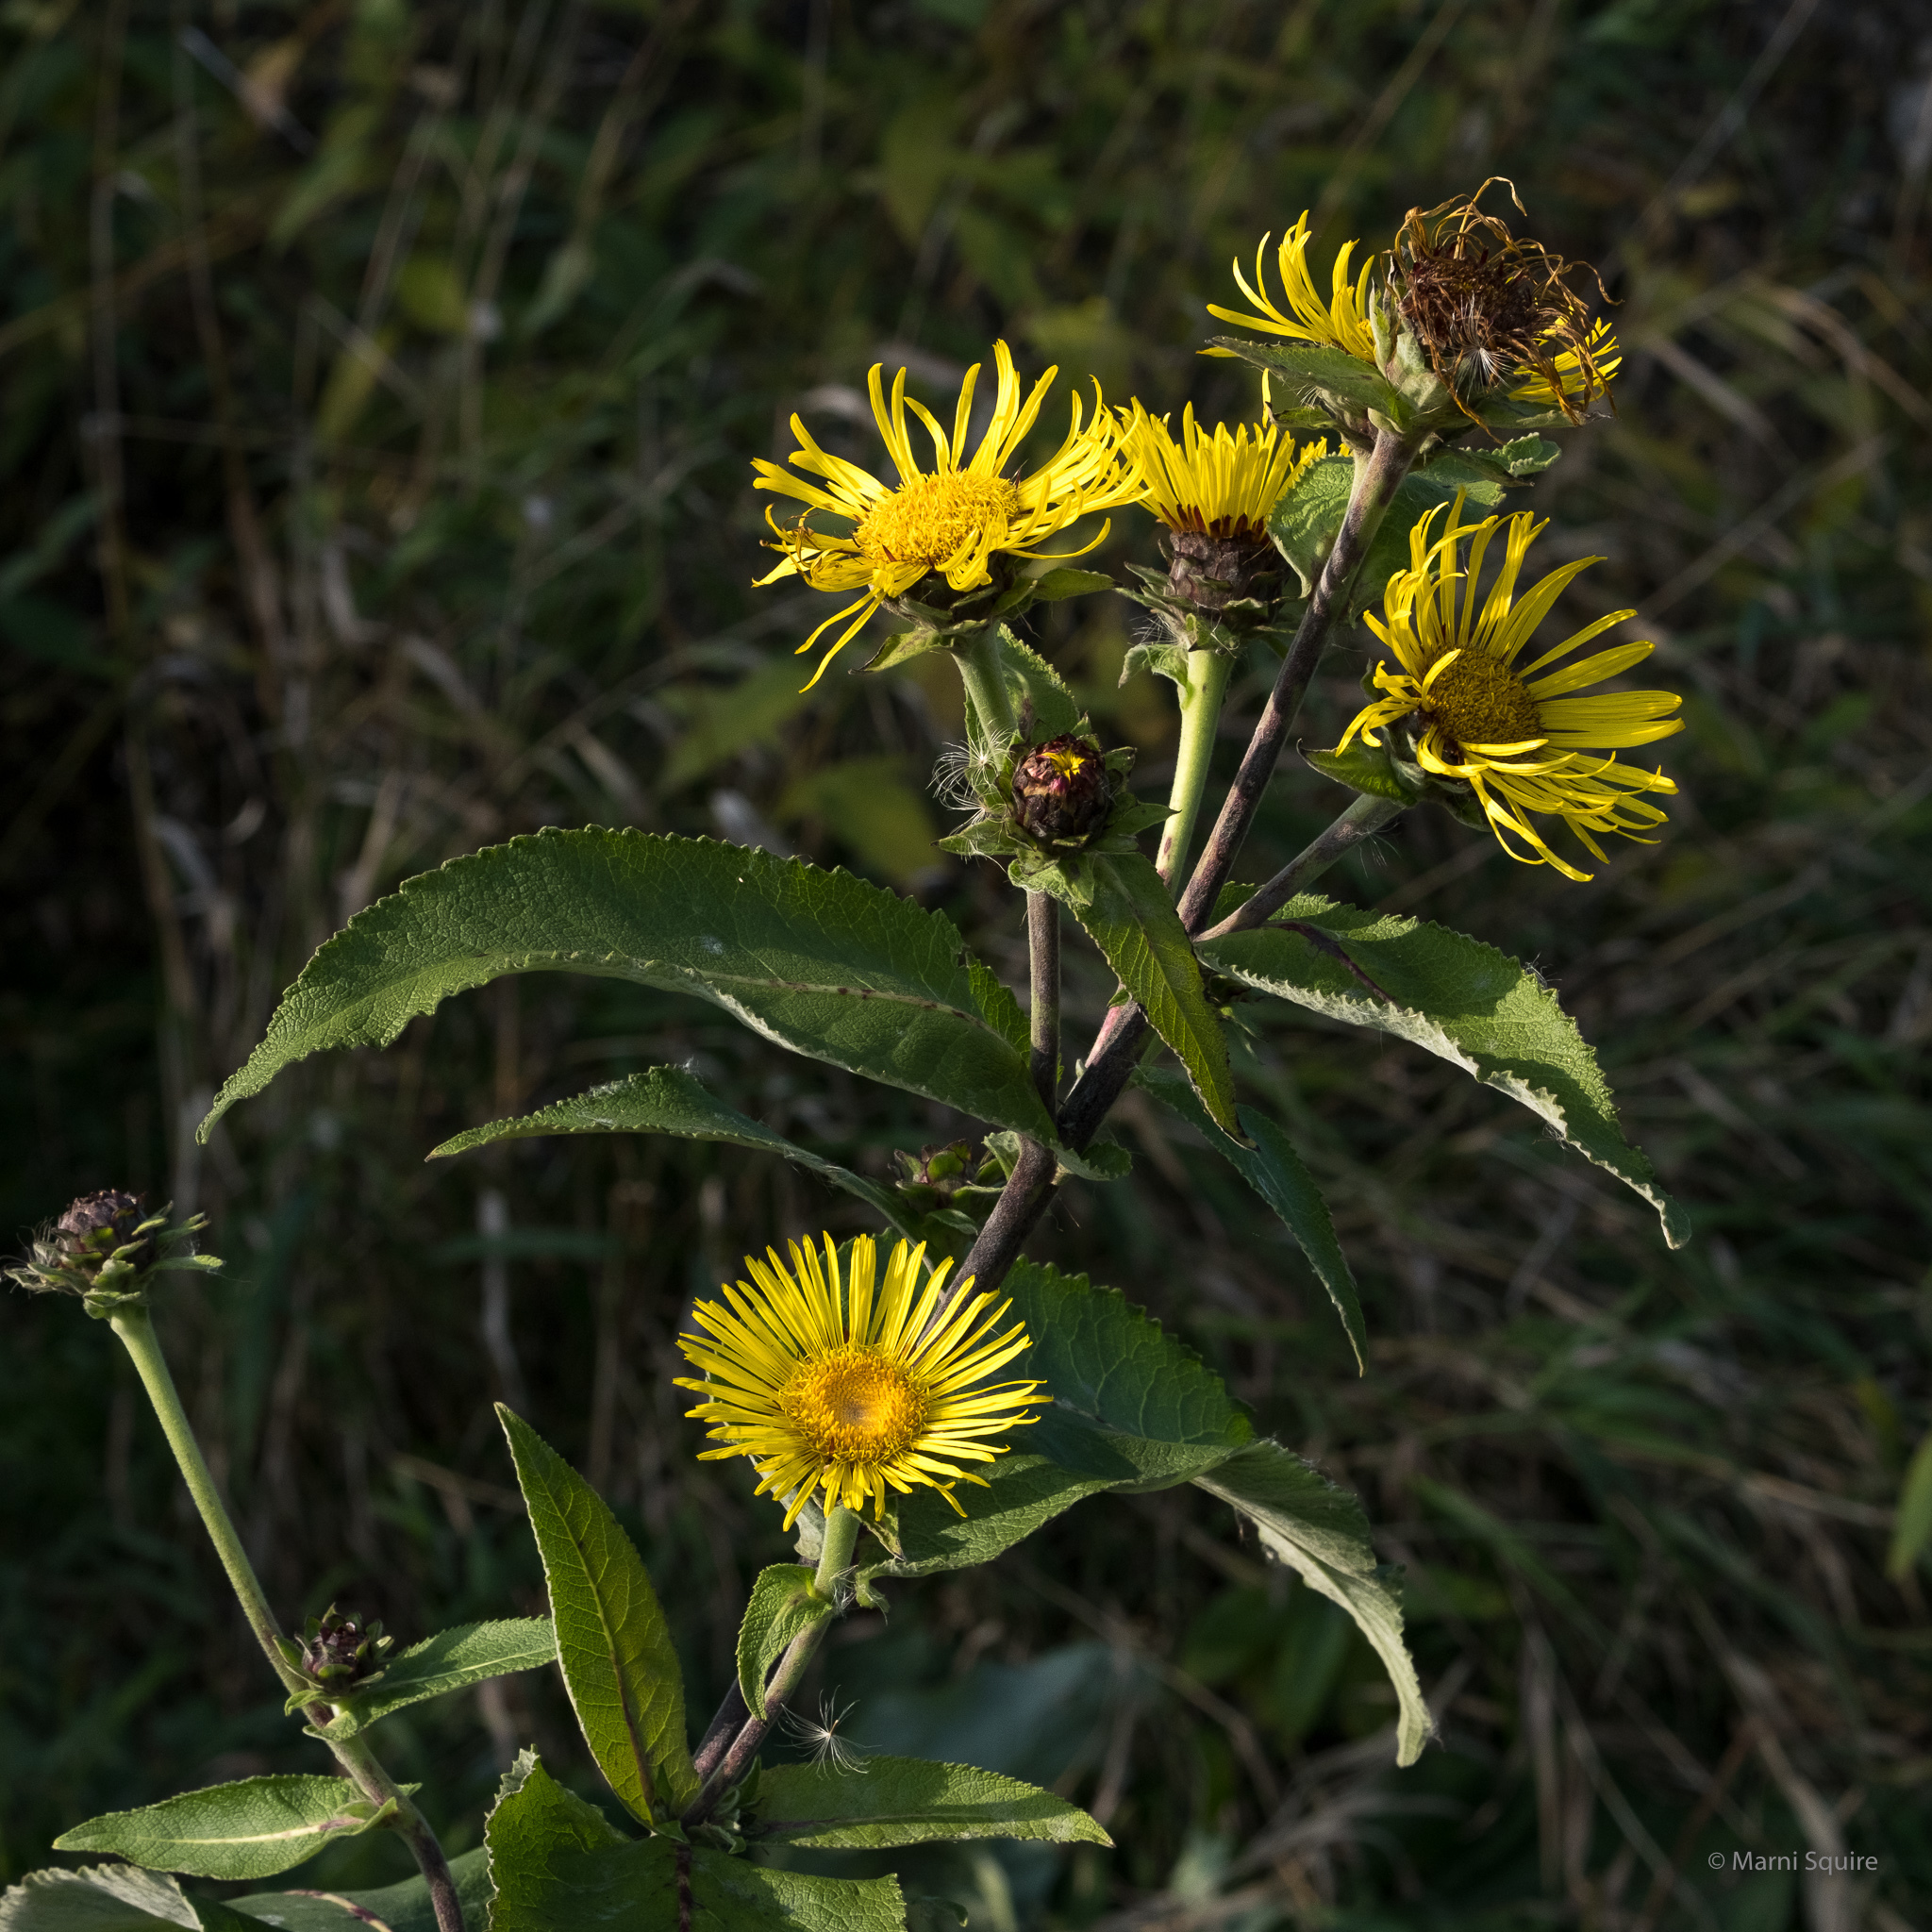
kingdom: Plantae
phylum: Tracheophyta
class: Magnoliopsida
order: Asterales
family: Asteraceae
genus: Inula
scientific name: Inula helenium
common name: Elecampane
